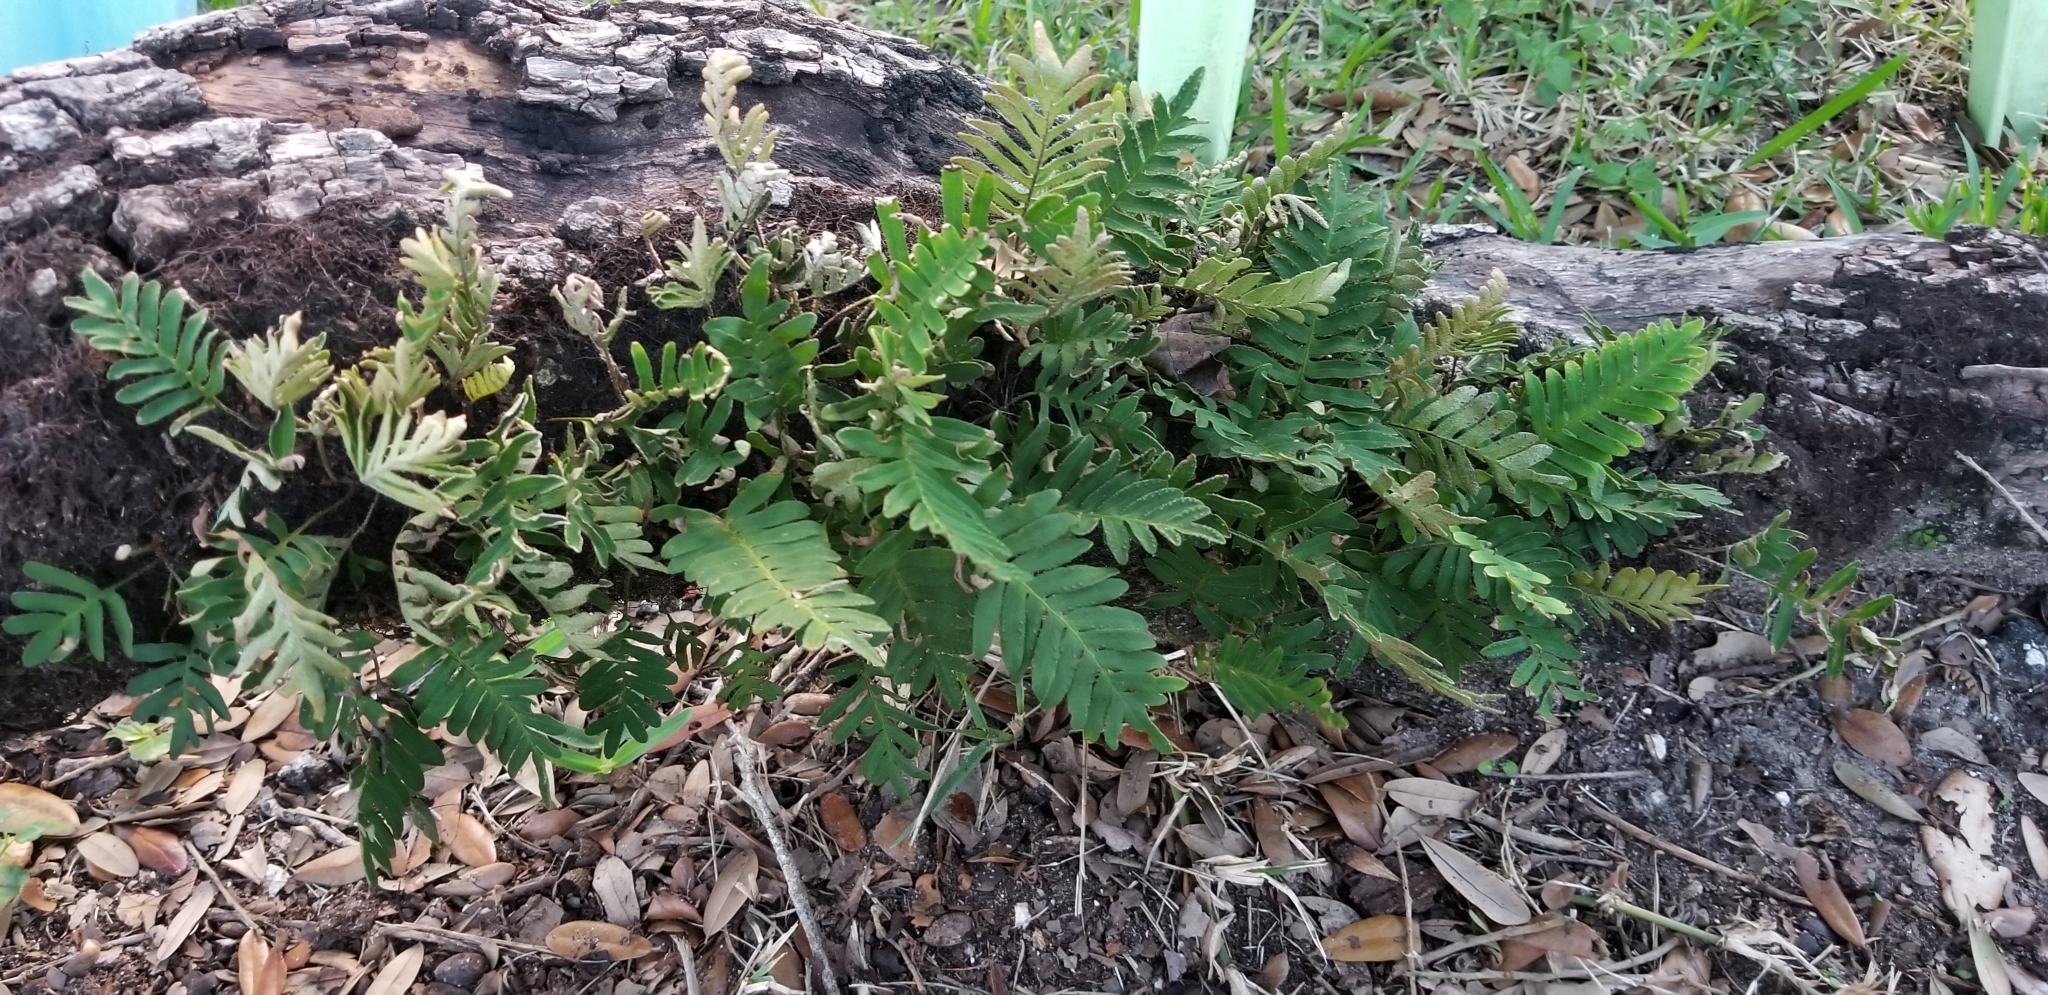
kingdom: Plantae
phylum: Tracheophyta
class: Polypodiopsida
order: Polypodiales
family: Polypodiaceae
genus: Pleopeltis
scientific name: Pleopeltis michauxiana
